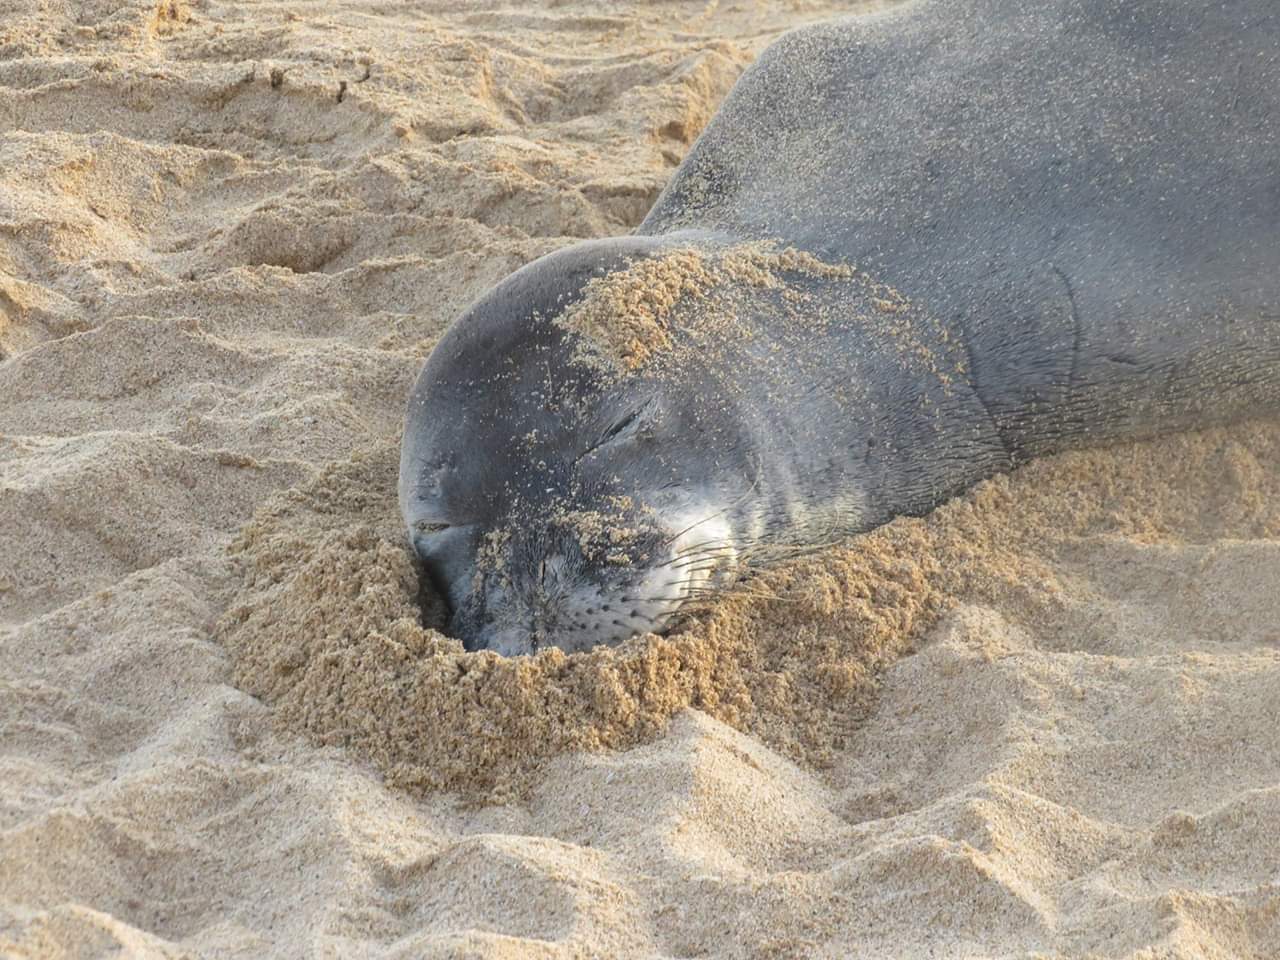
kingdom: Animalia
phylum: Chordata
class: Mammalia
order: Carnivora
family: Phocidae
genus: Neomonachus
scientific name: Neomonachus schauinslandi
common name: Hawaiian monk seal
